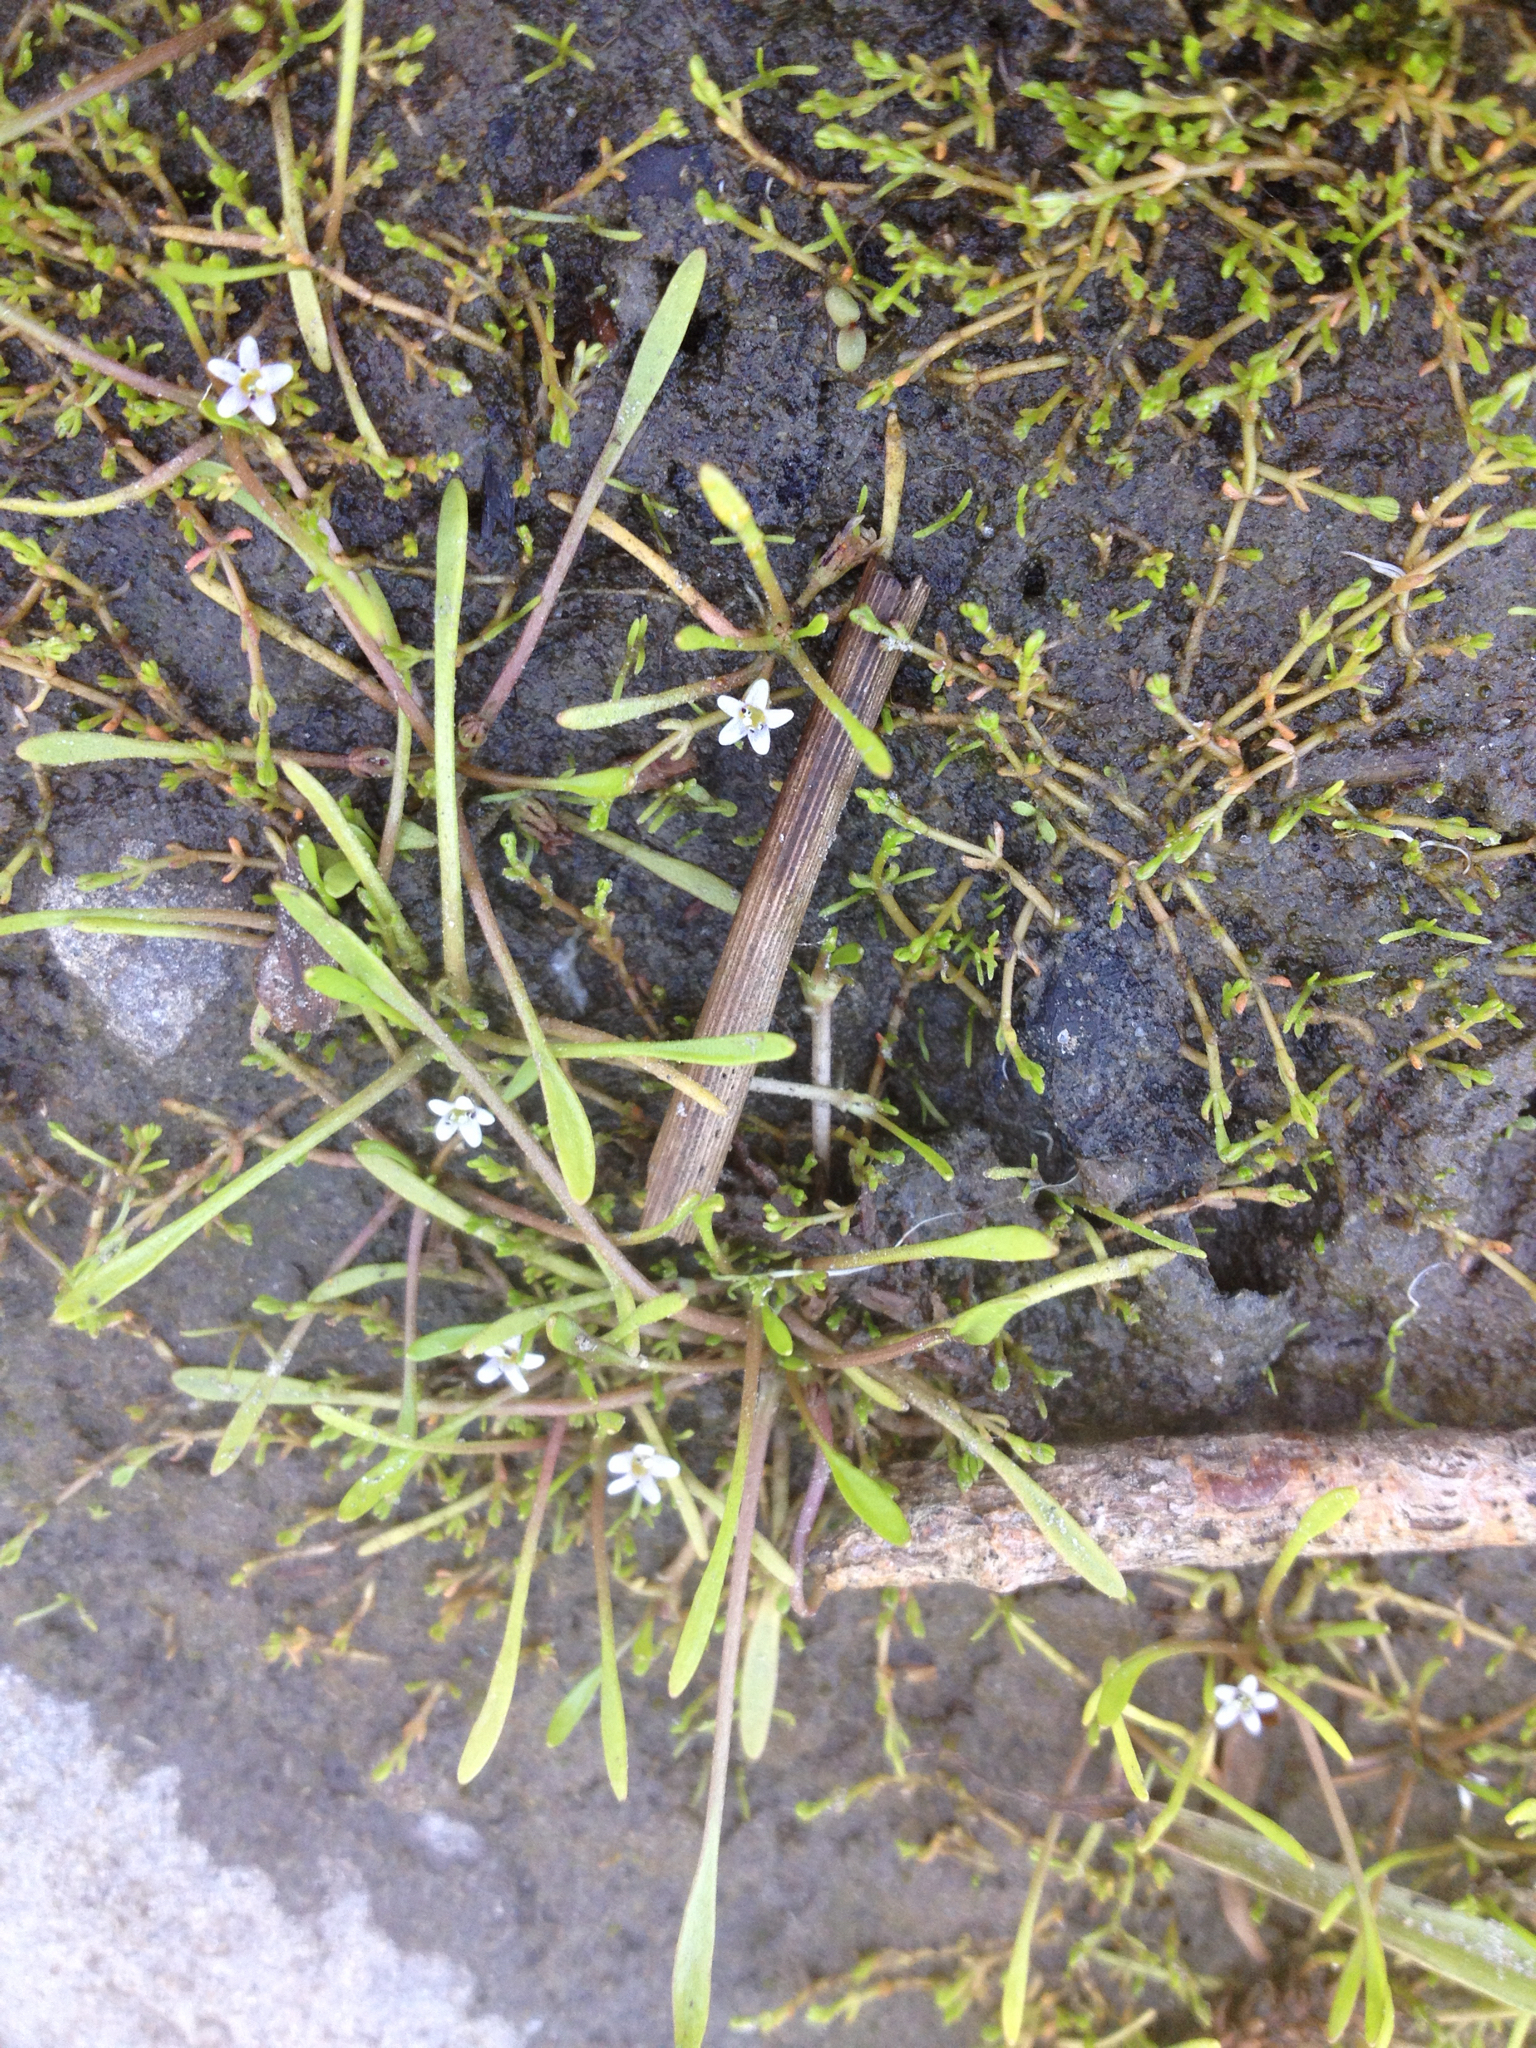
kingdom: Plantae
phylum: Tracheophyta
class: Magnoliopsida
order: Lamiales
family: Scrophulariaceae
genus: Limosella
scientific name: Limosella australis
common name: Welsh mudwort
